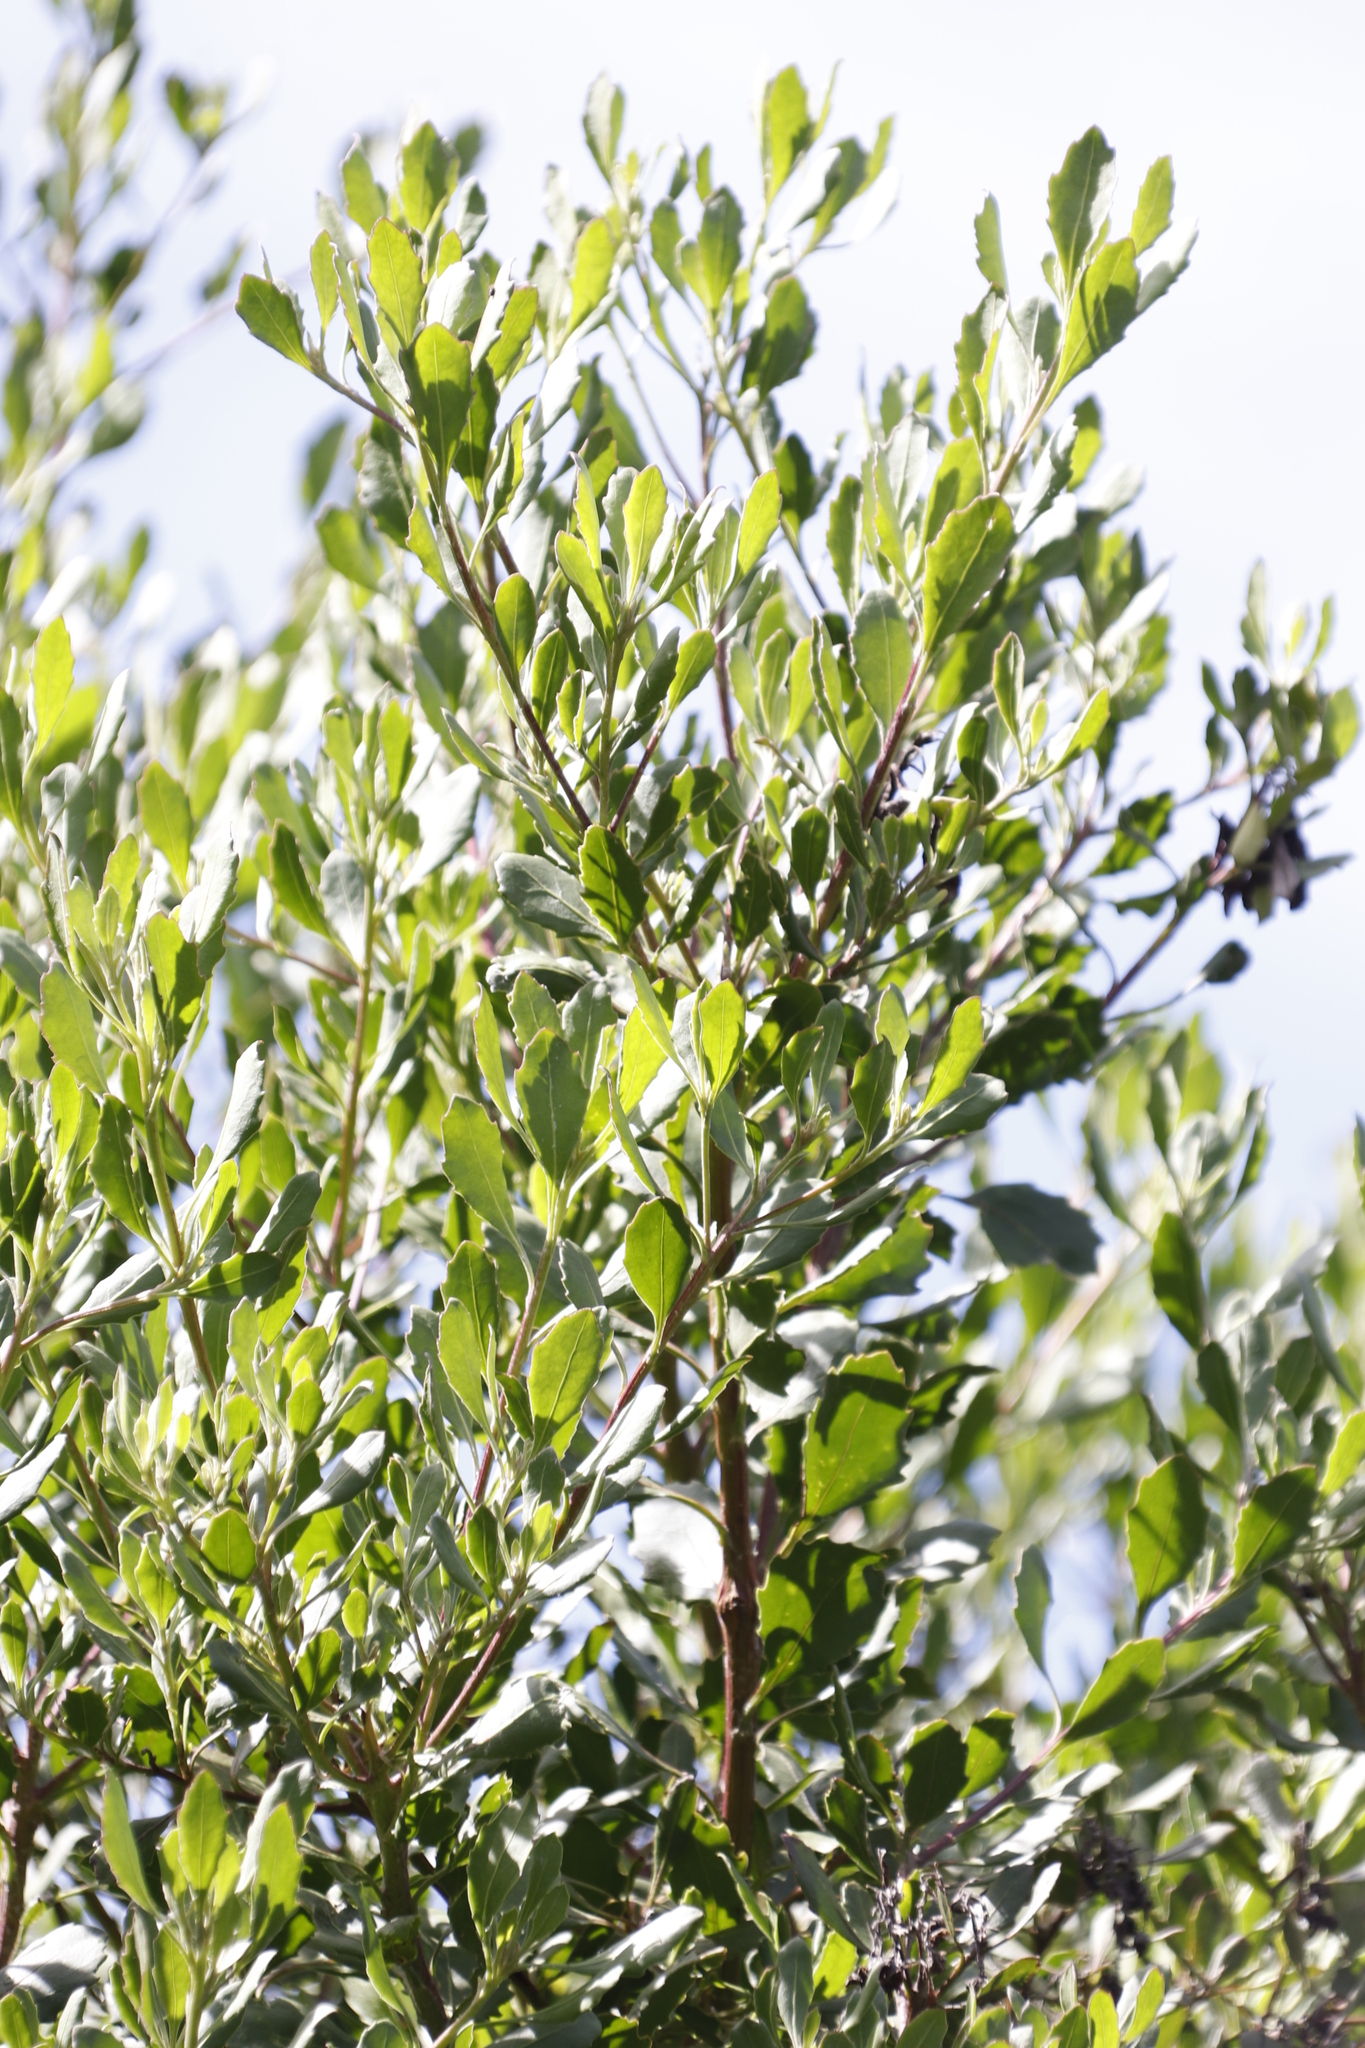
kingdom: Plantae
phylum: Tracheophyta
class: Magnoliopsida
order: Asterales
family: Asteraceae
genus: Osteospermum
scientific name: Osteospermum moniliferum
